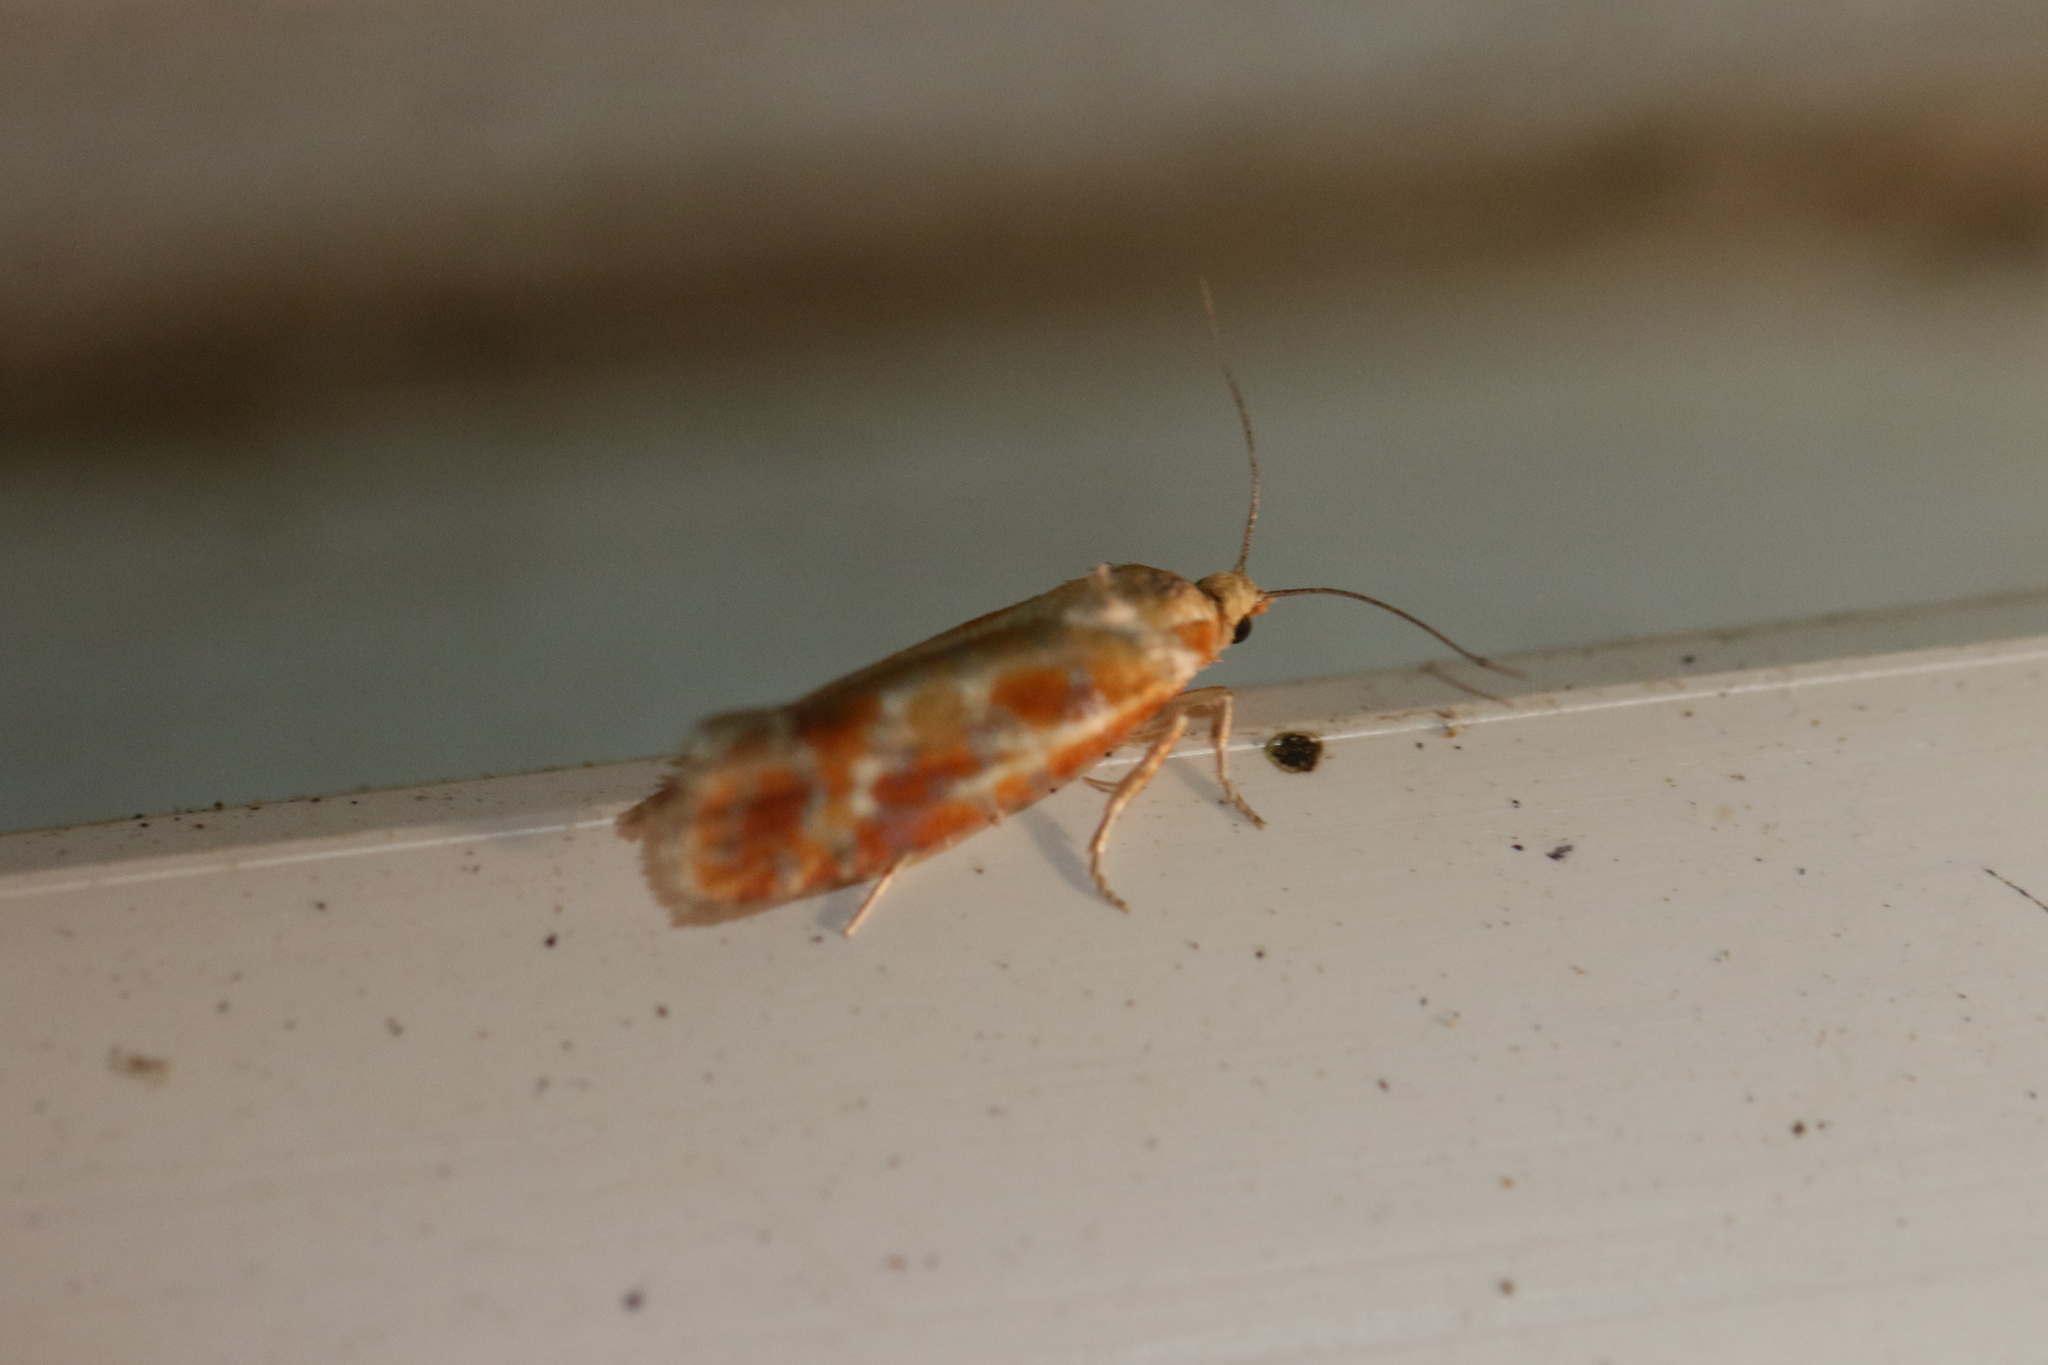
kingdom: Animalia
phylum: Arthropoda
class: Insecta
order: Lepidoptera
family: Tortricidae
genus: Rhyacionia
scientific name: Rhyacionia buoliana
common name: European pine shoot moth
